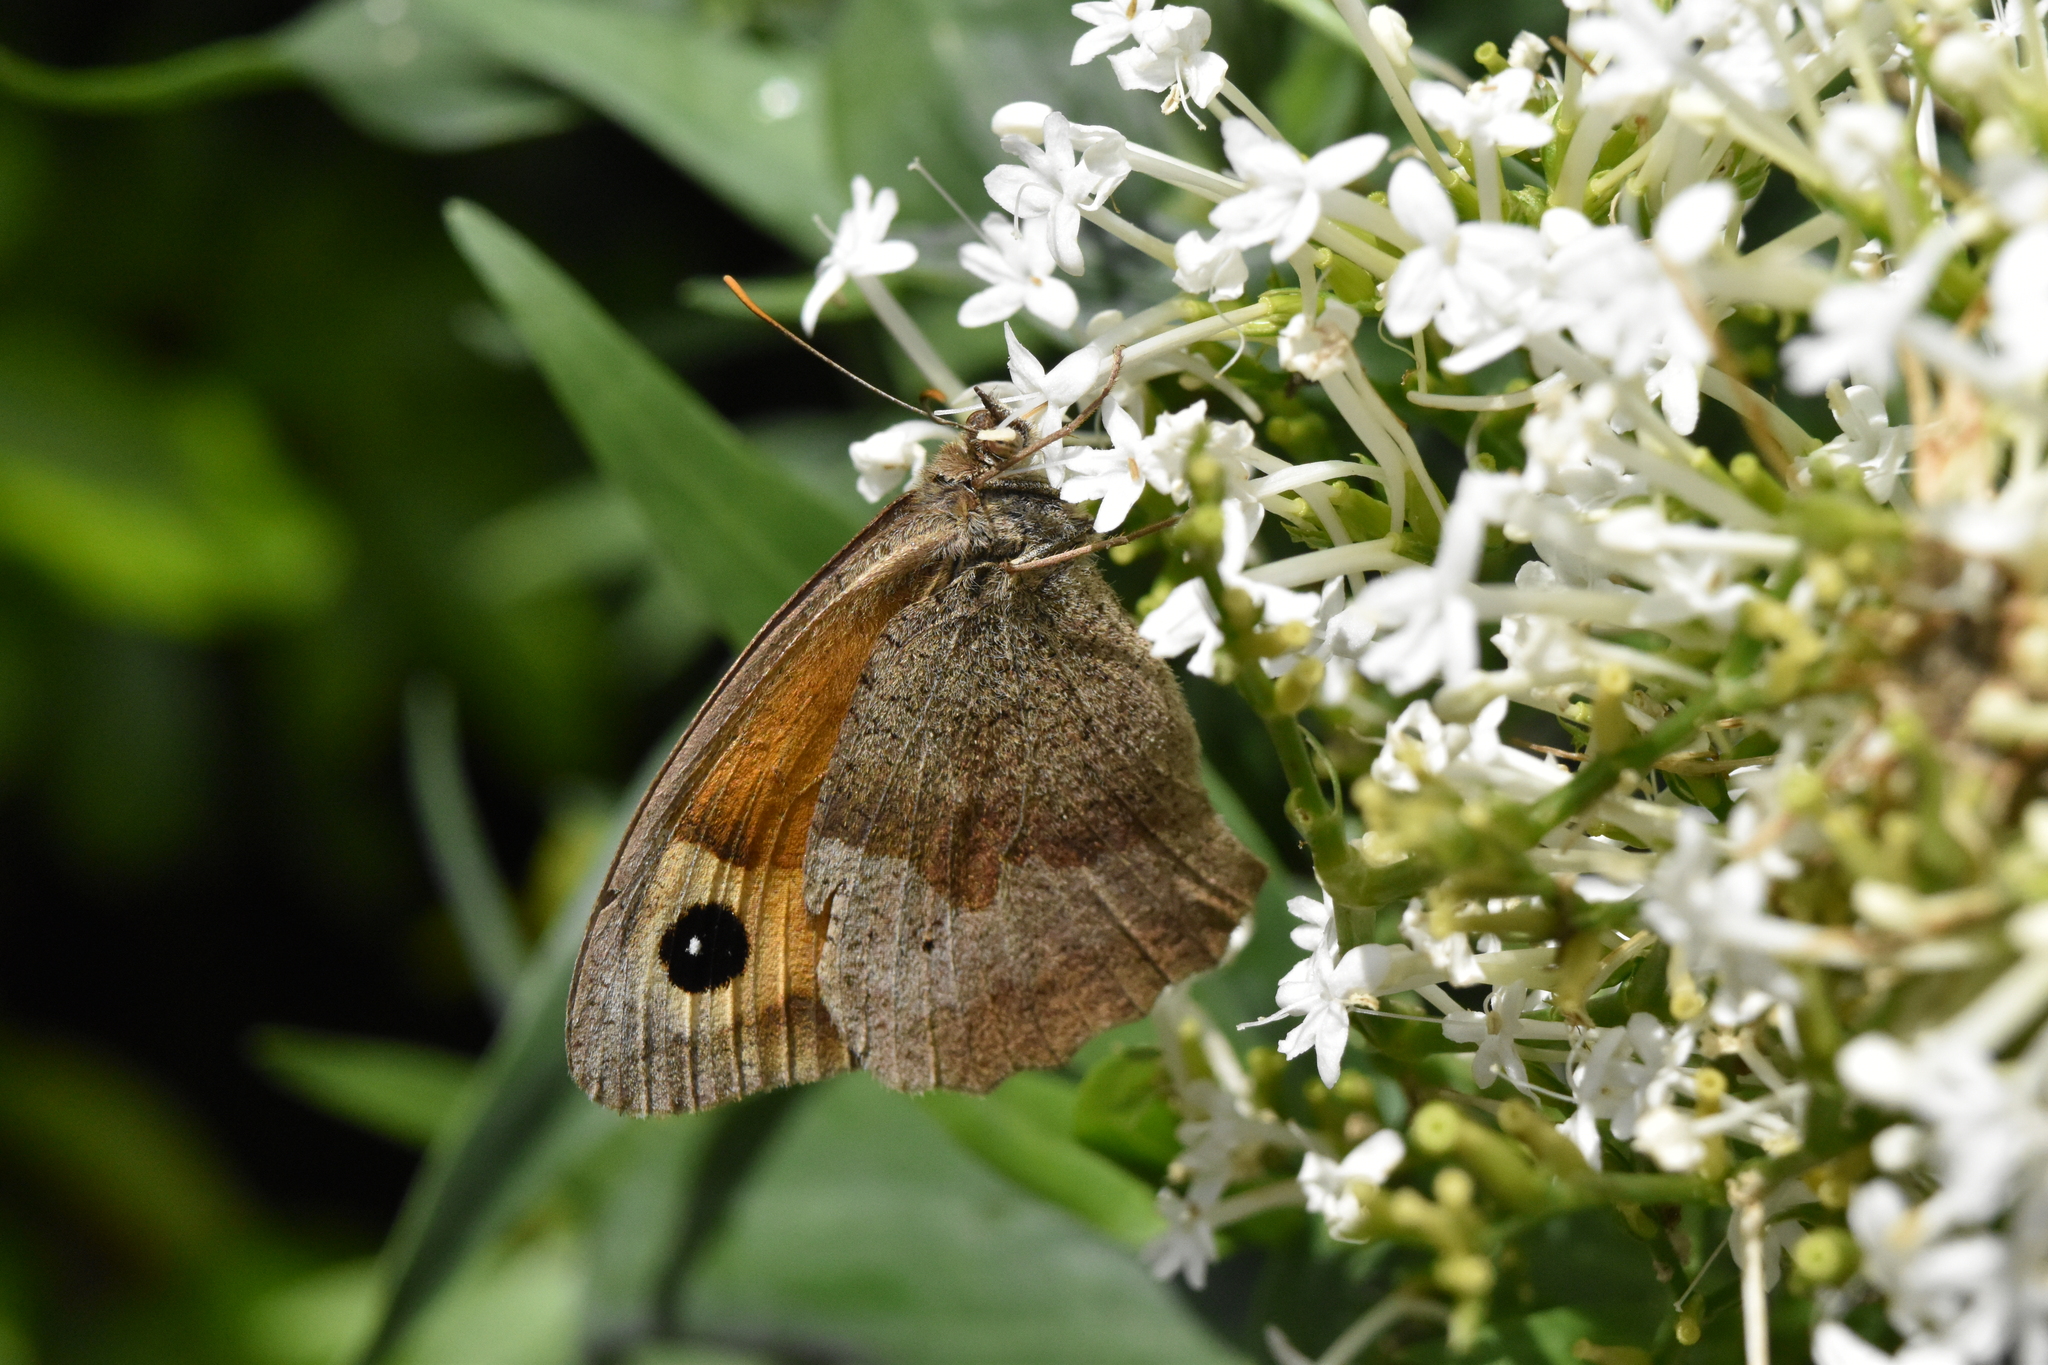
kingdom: Animalia
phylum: Arthropoda
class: Insecta
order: Lepidoptera
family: Nymphalidae
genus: Maniola
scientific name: Maniola jurtina
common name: Meadow brown
